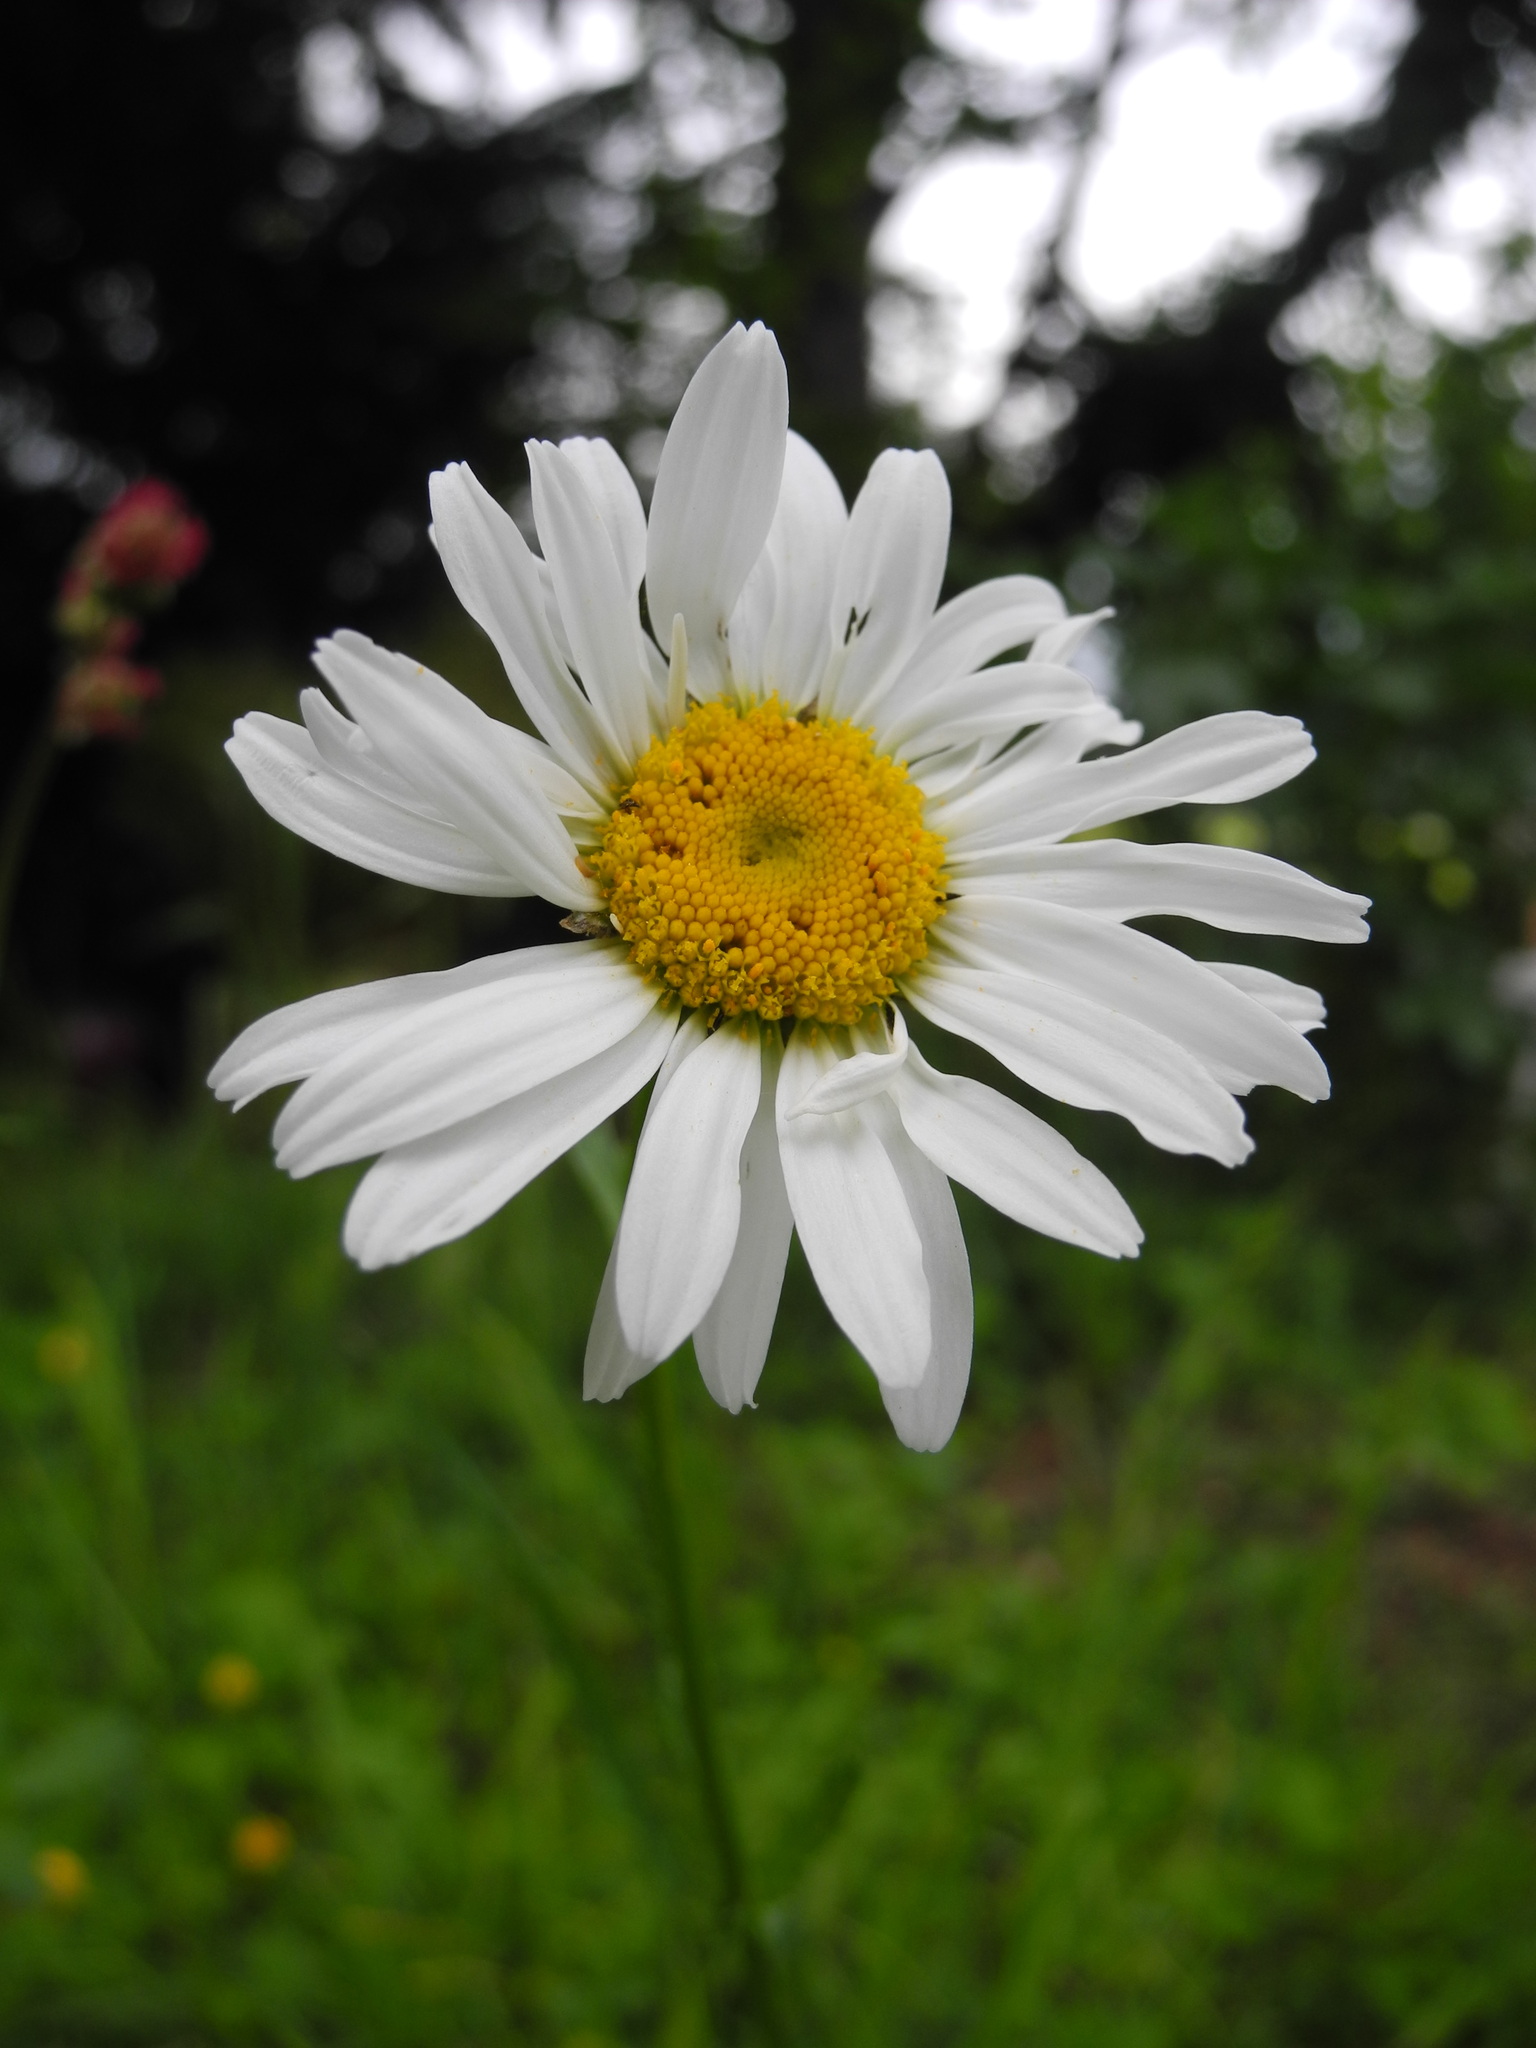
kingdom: Plantae
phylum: Tracheophyta
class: Magnoliopsida
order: Asterales
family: Asteraceae
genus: Leucanthemum
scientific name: Leucanthemum
